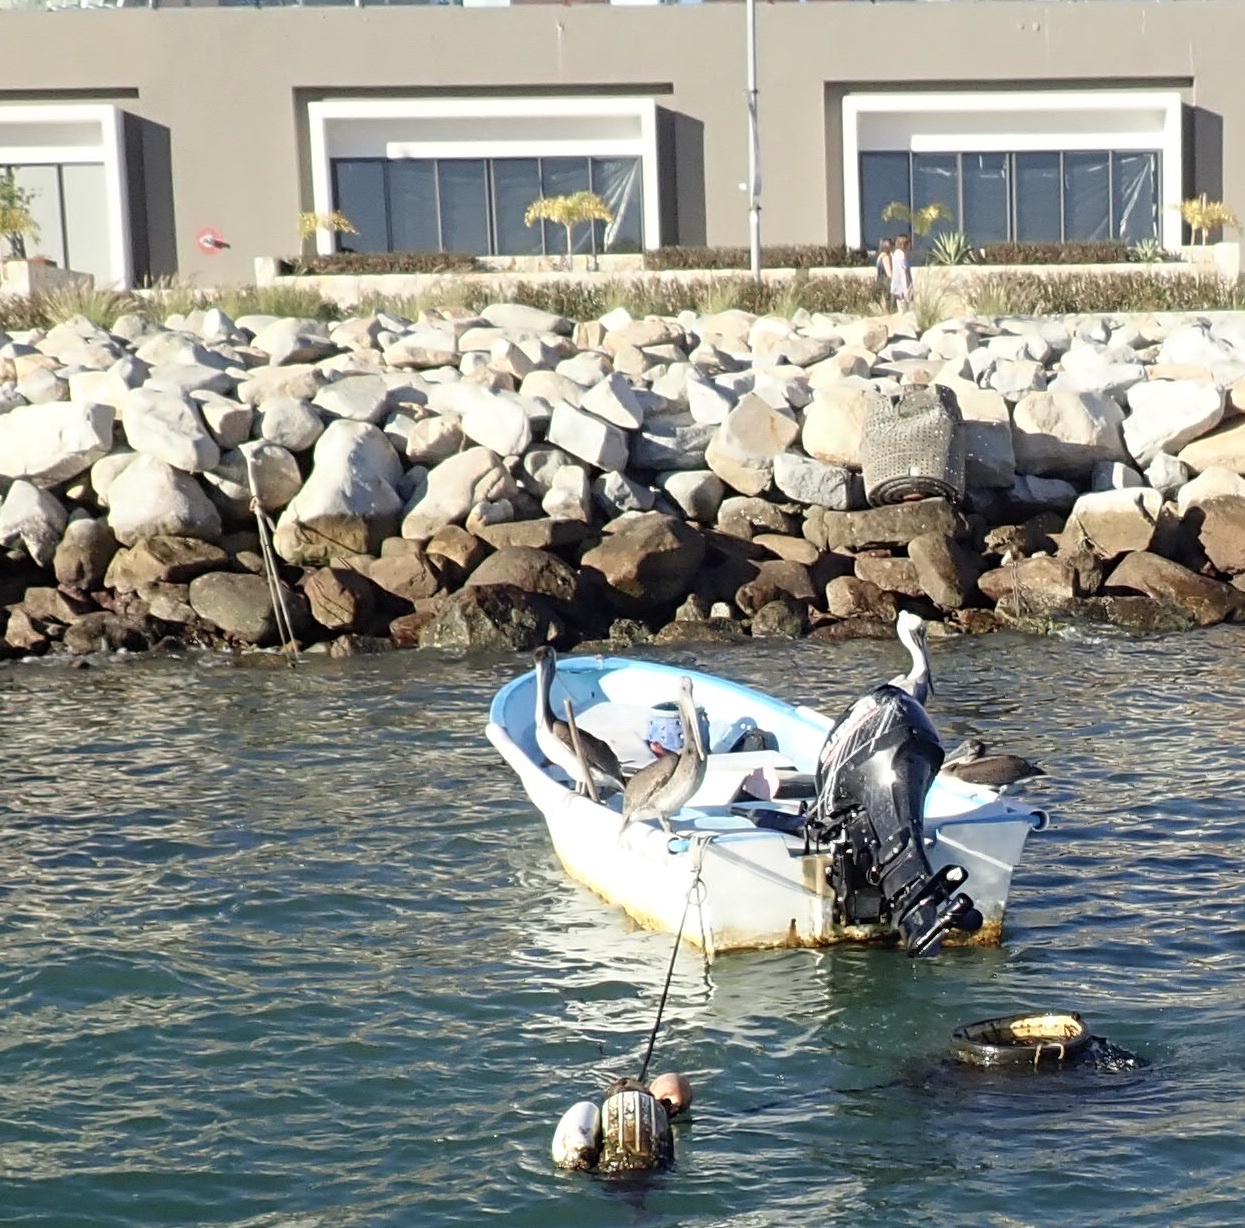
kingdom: Animalia
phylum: Chordata
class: Aves
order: Pelecaniformes
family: Pelecanidae
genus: Pelecanus
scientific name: Pelecanus occidentalis
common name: Brown pelican
